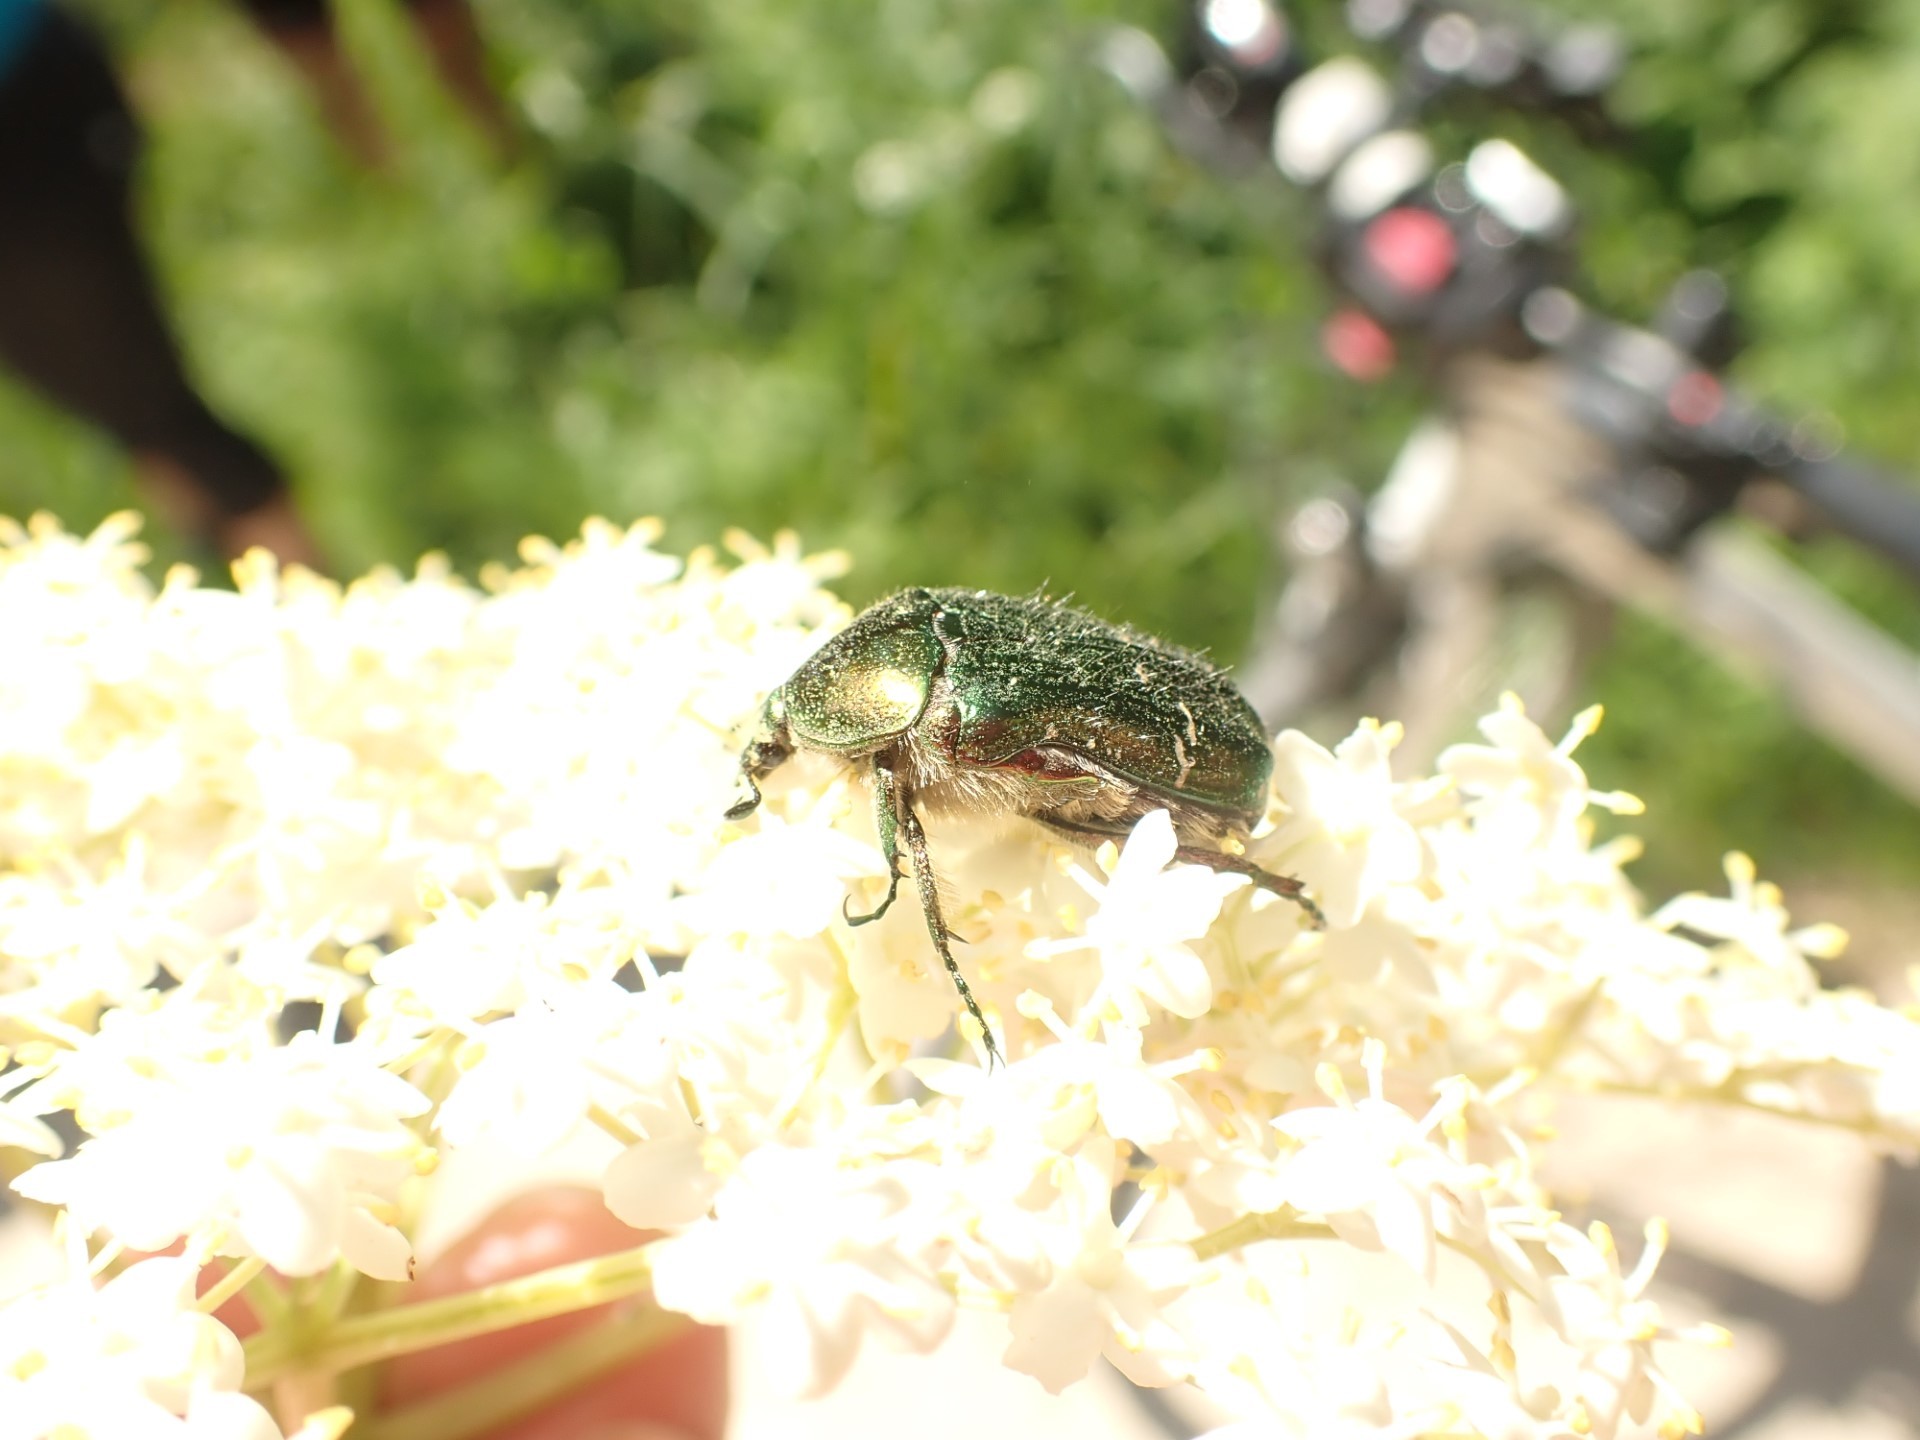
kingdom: Animalia
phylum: Arthropoda
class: Insecta
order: Coleoptera
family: Scarabaeidae
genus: Cetonia
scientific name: Cetonia aurata
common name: Rose chafer
